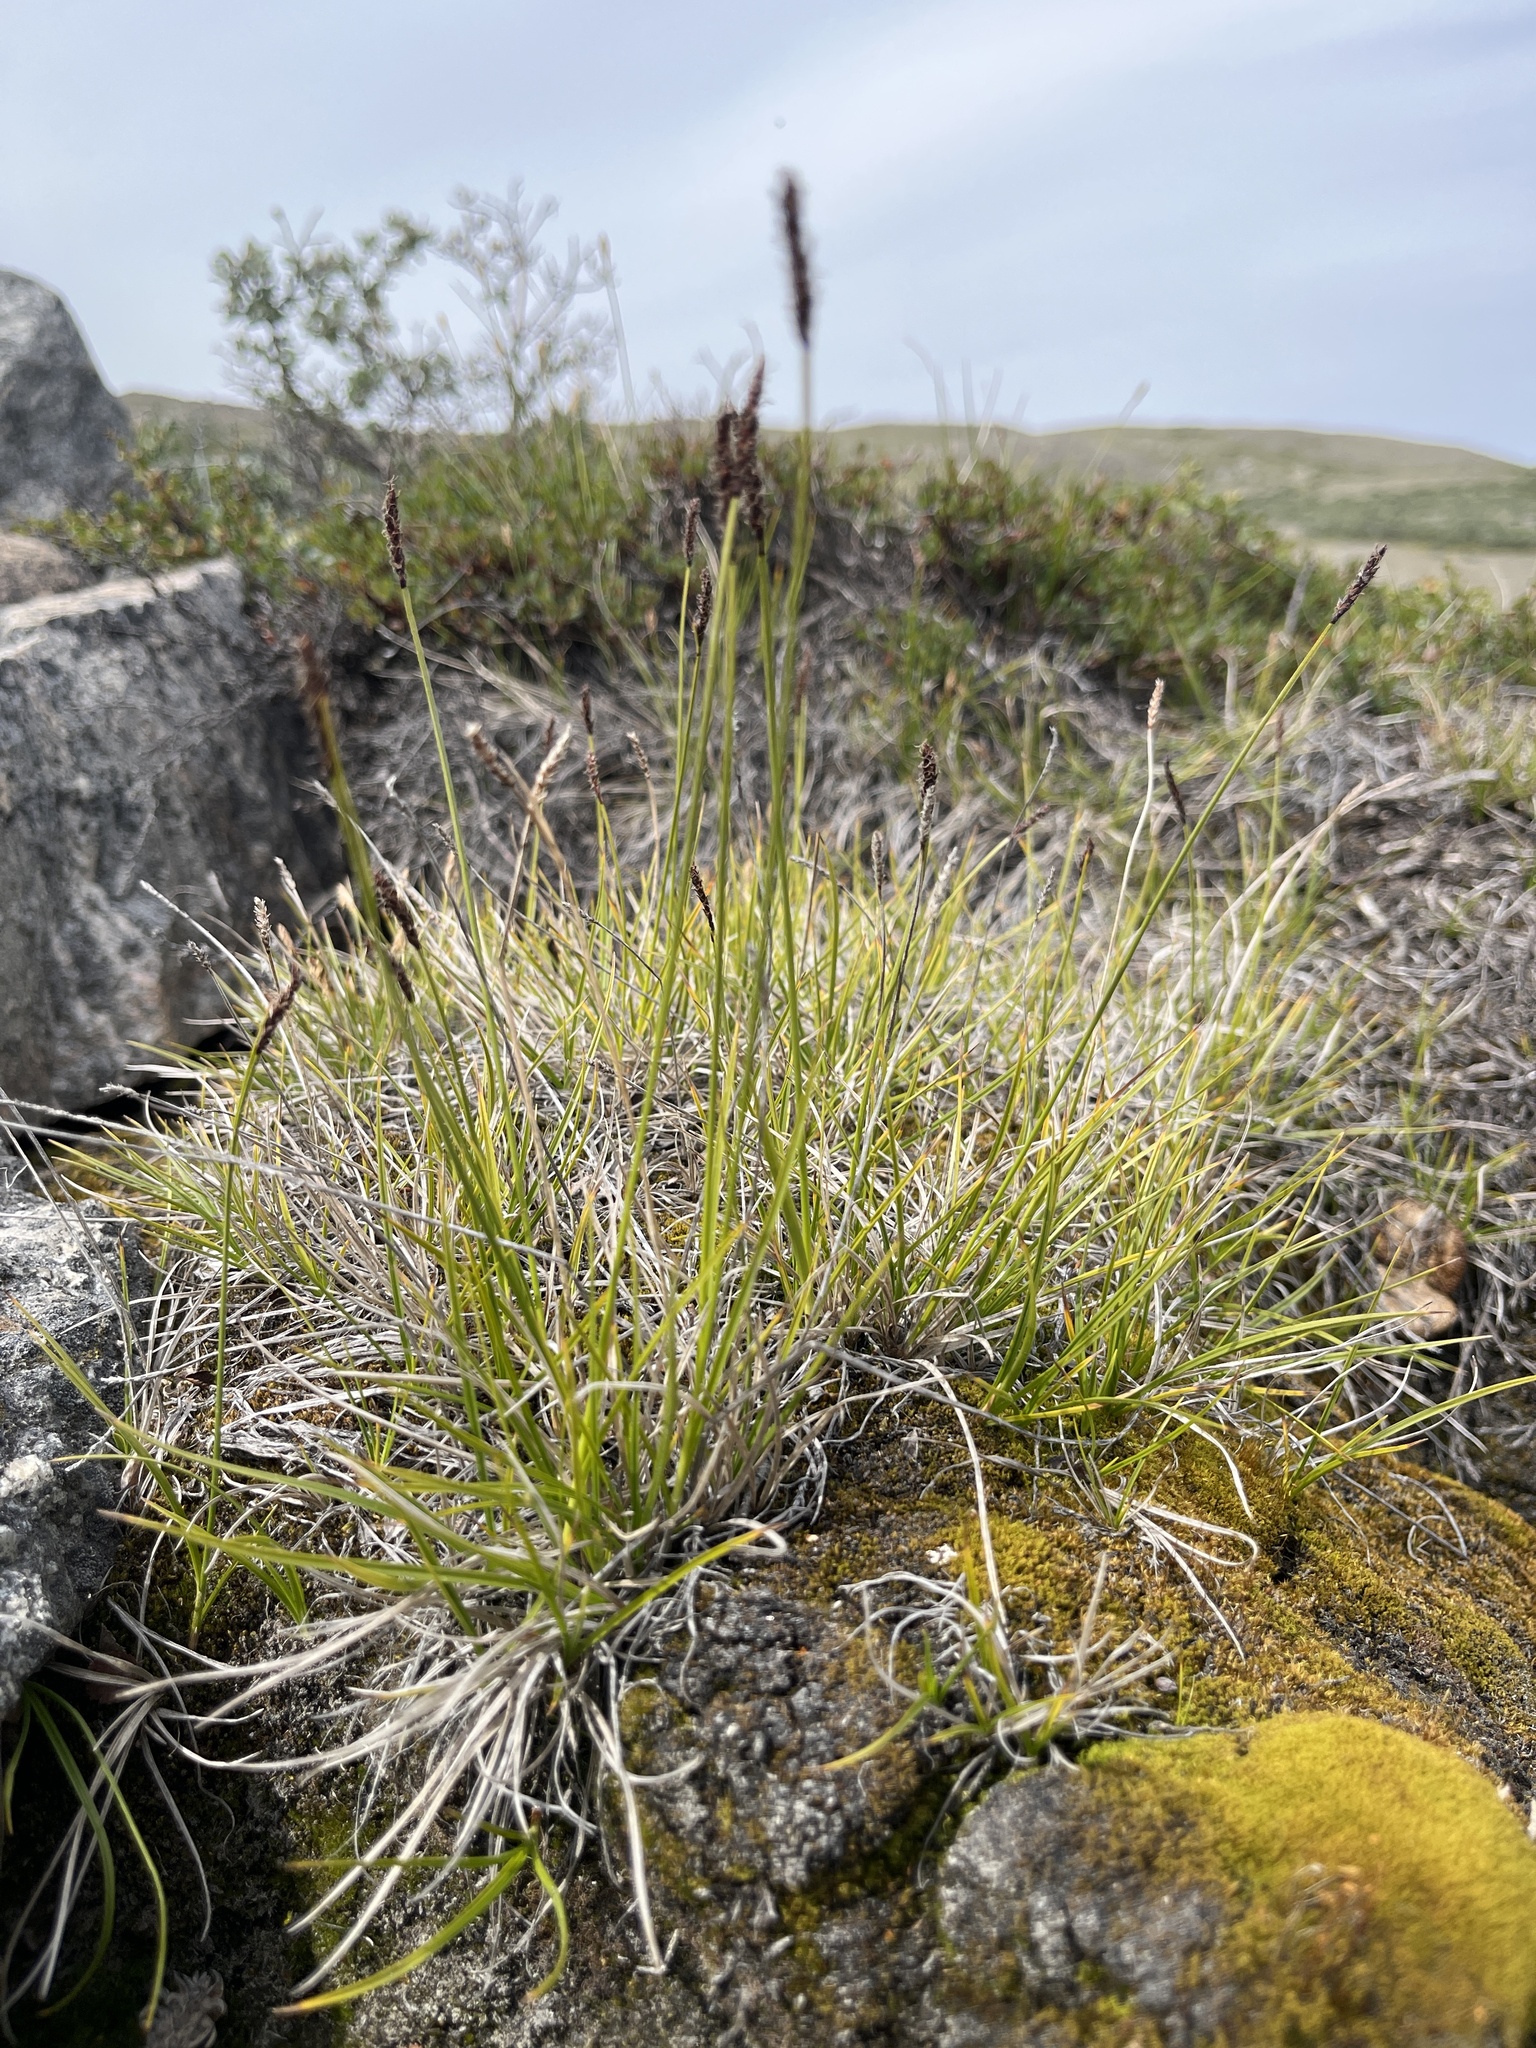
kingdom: Plantae
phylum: Tracheophyta
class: Liliopsida
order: Poales
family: Cyperaceae
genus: Carex
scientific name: Carex scirpoidea
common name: Canada single-spike sedge
